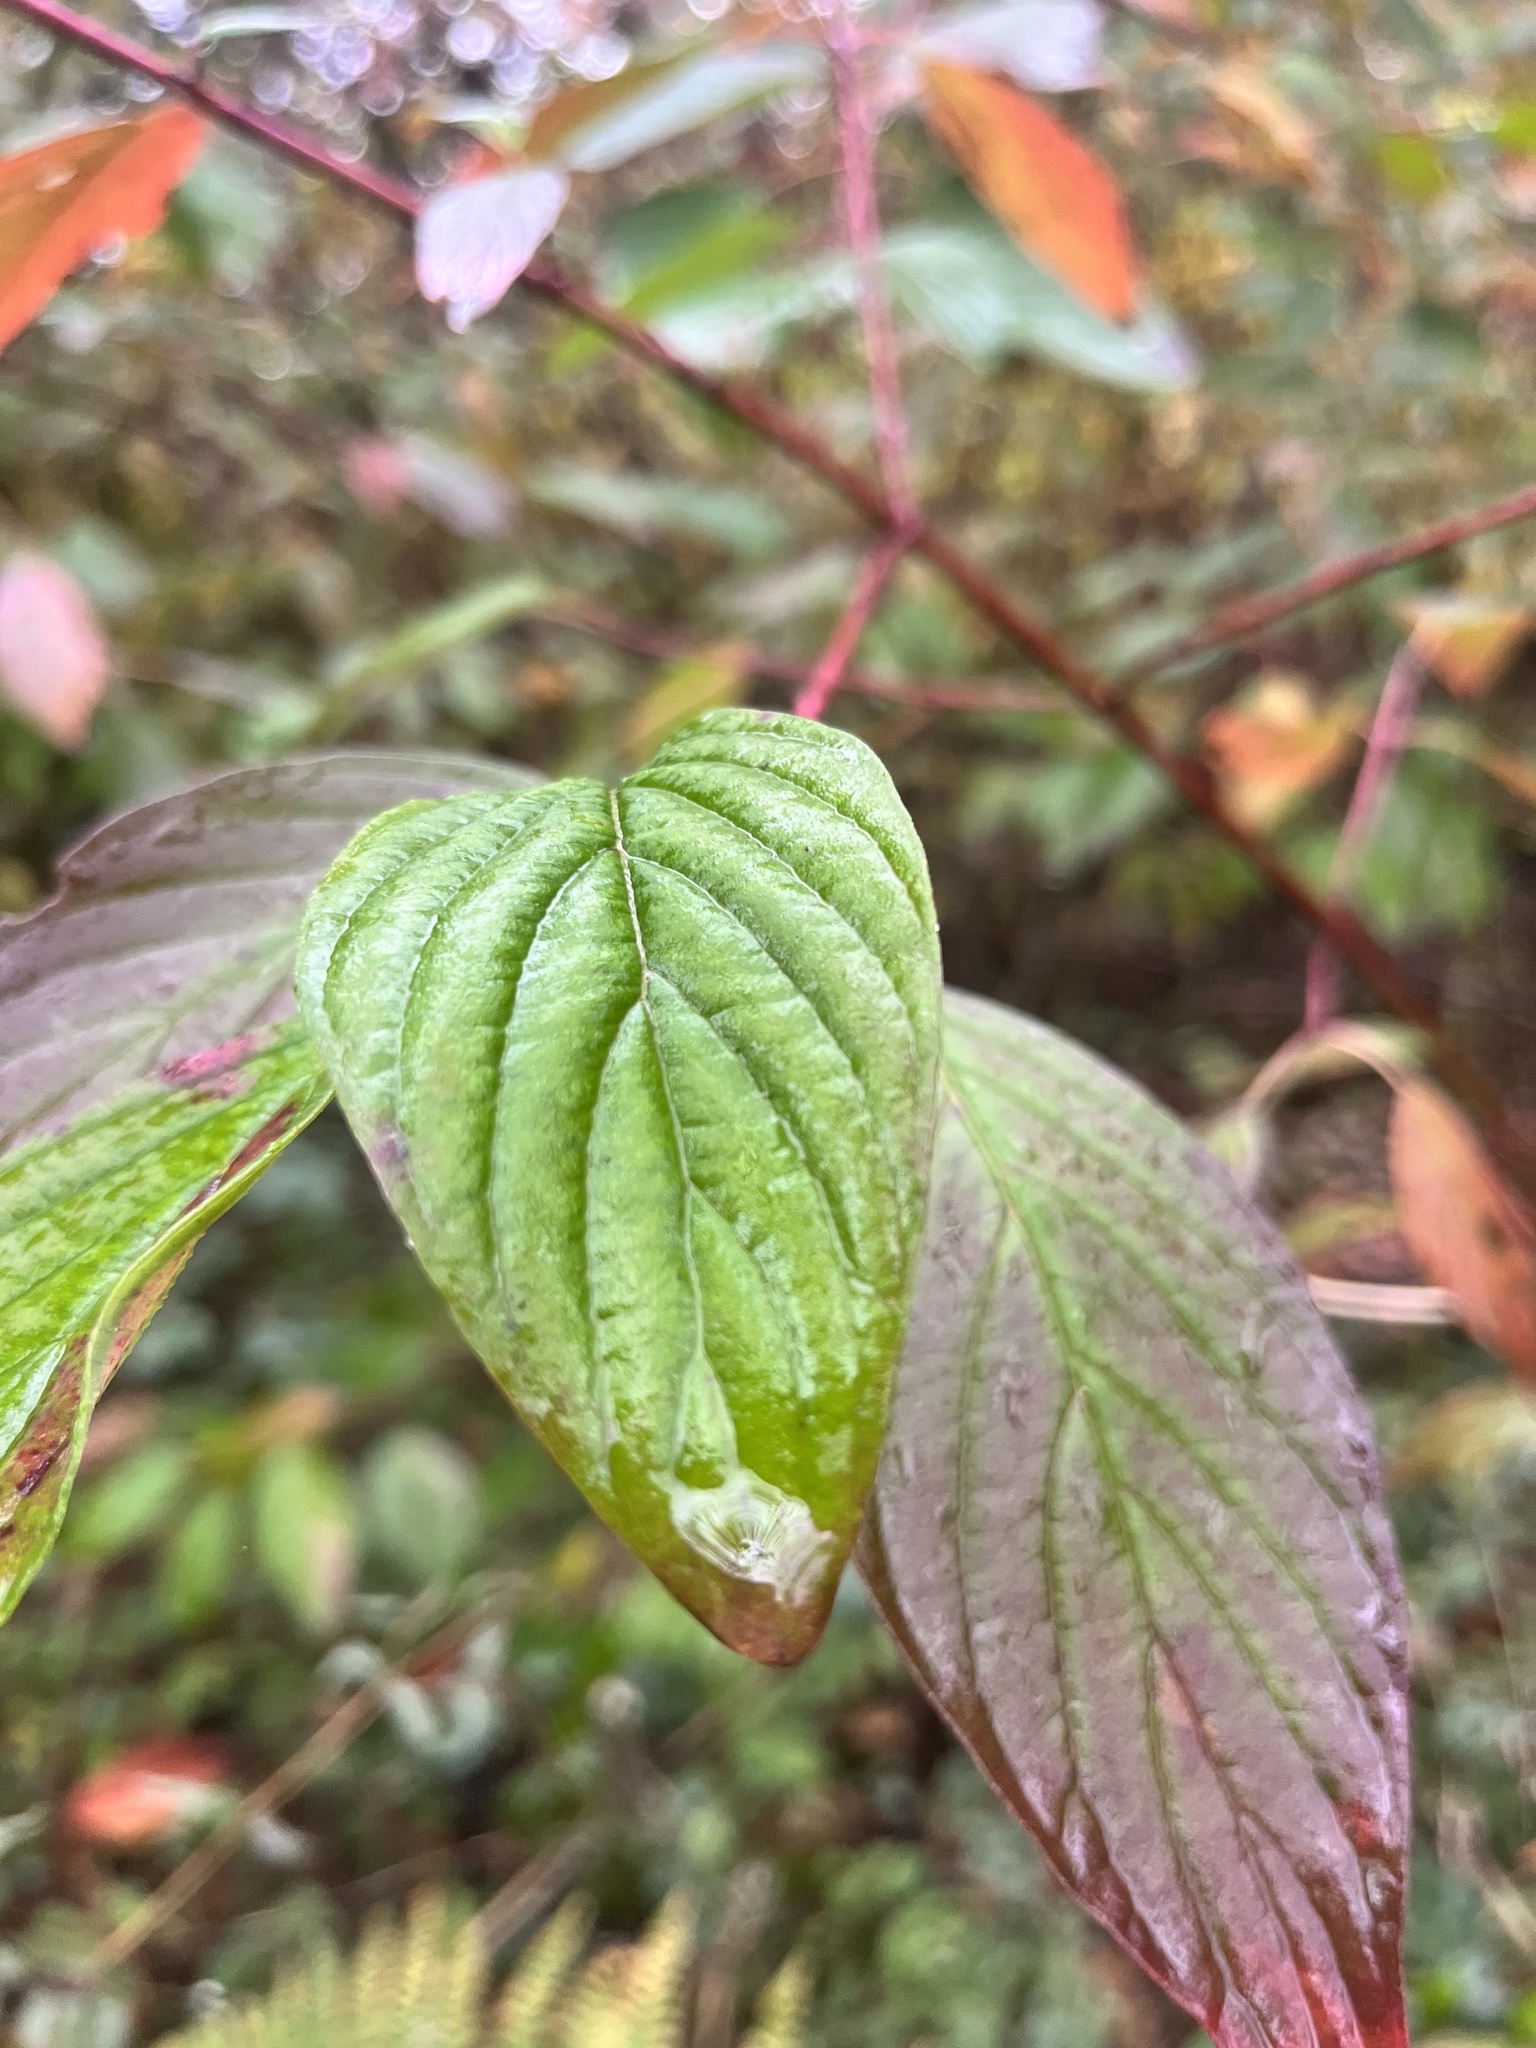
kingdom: Plantae
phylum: Tracheophyta
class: Magnoliopsida
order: Cornales
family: Cornaceae
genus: Cornus
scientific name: Cornus sericea
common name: Red-osier dogwood
